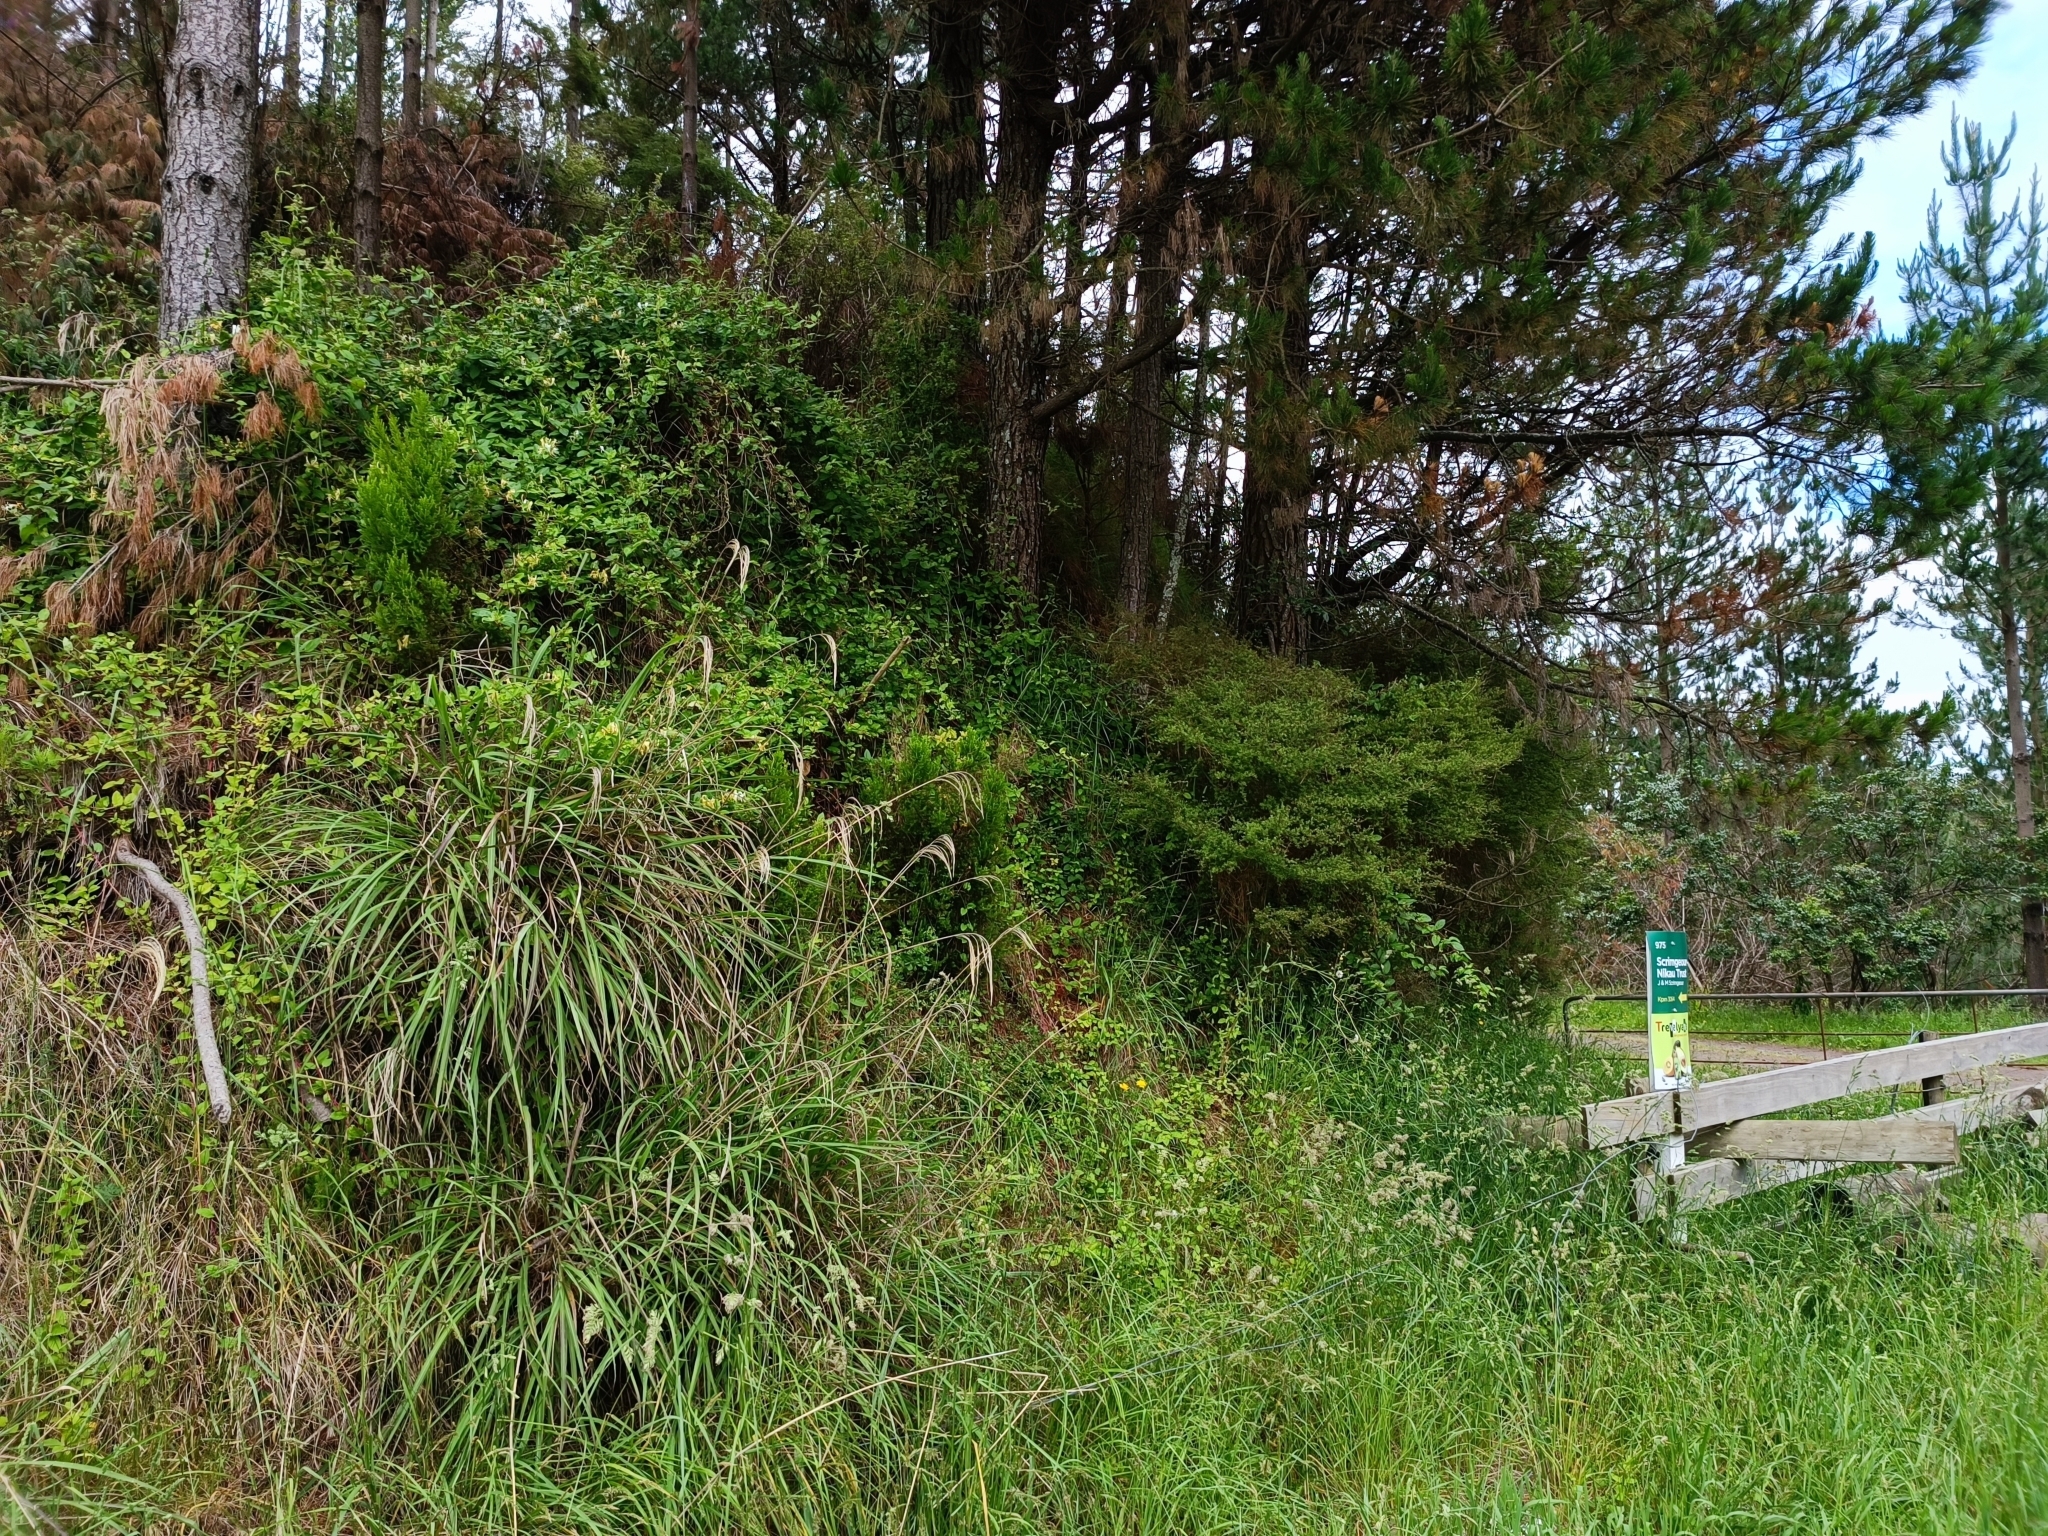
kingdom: Plantae
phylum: Tracheophyta
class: Magnoliopsida
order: Dipsacales
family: Caprifoliaceae
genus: Lonicera
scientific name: Lonicera japonica
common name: Japanese honeysuckle
